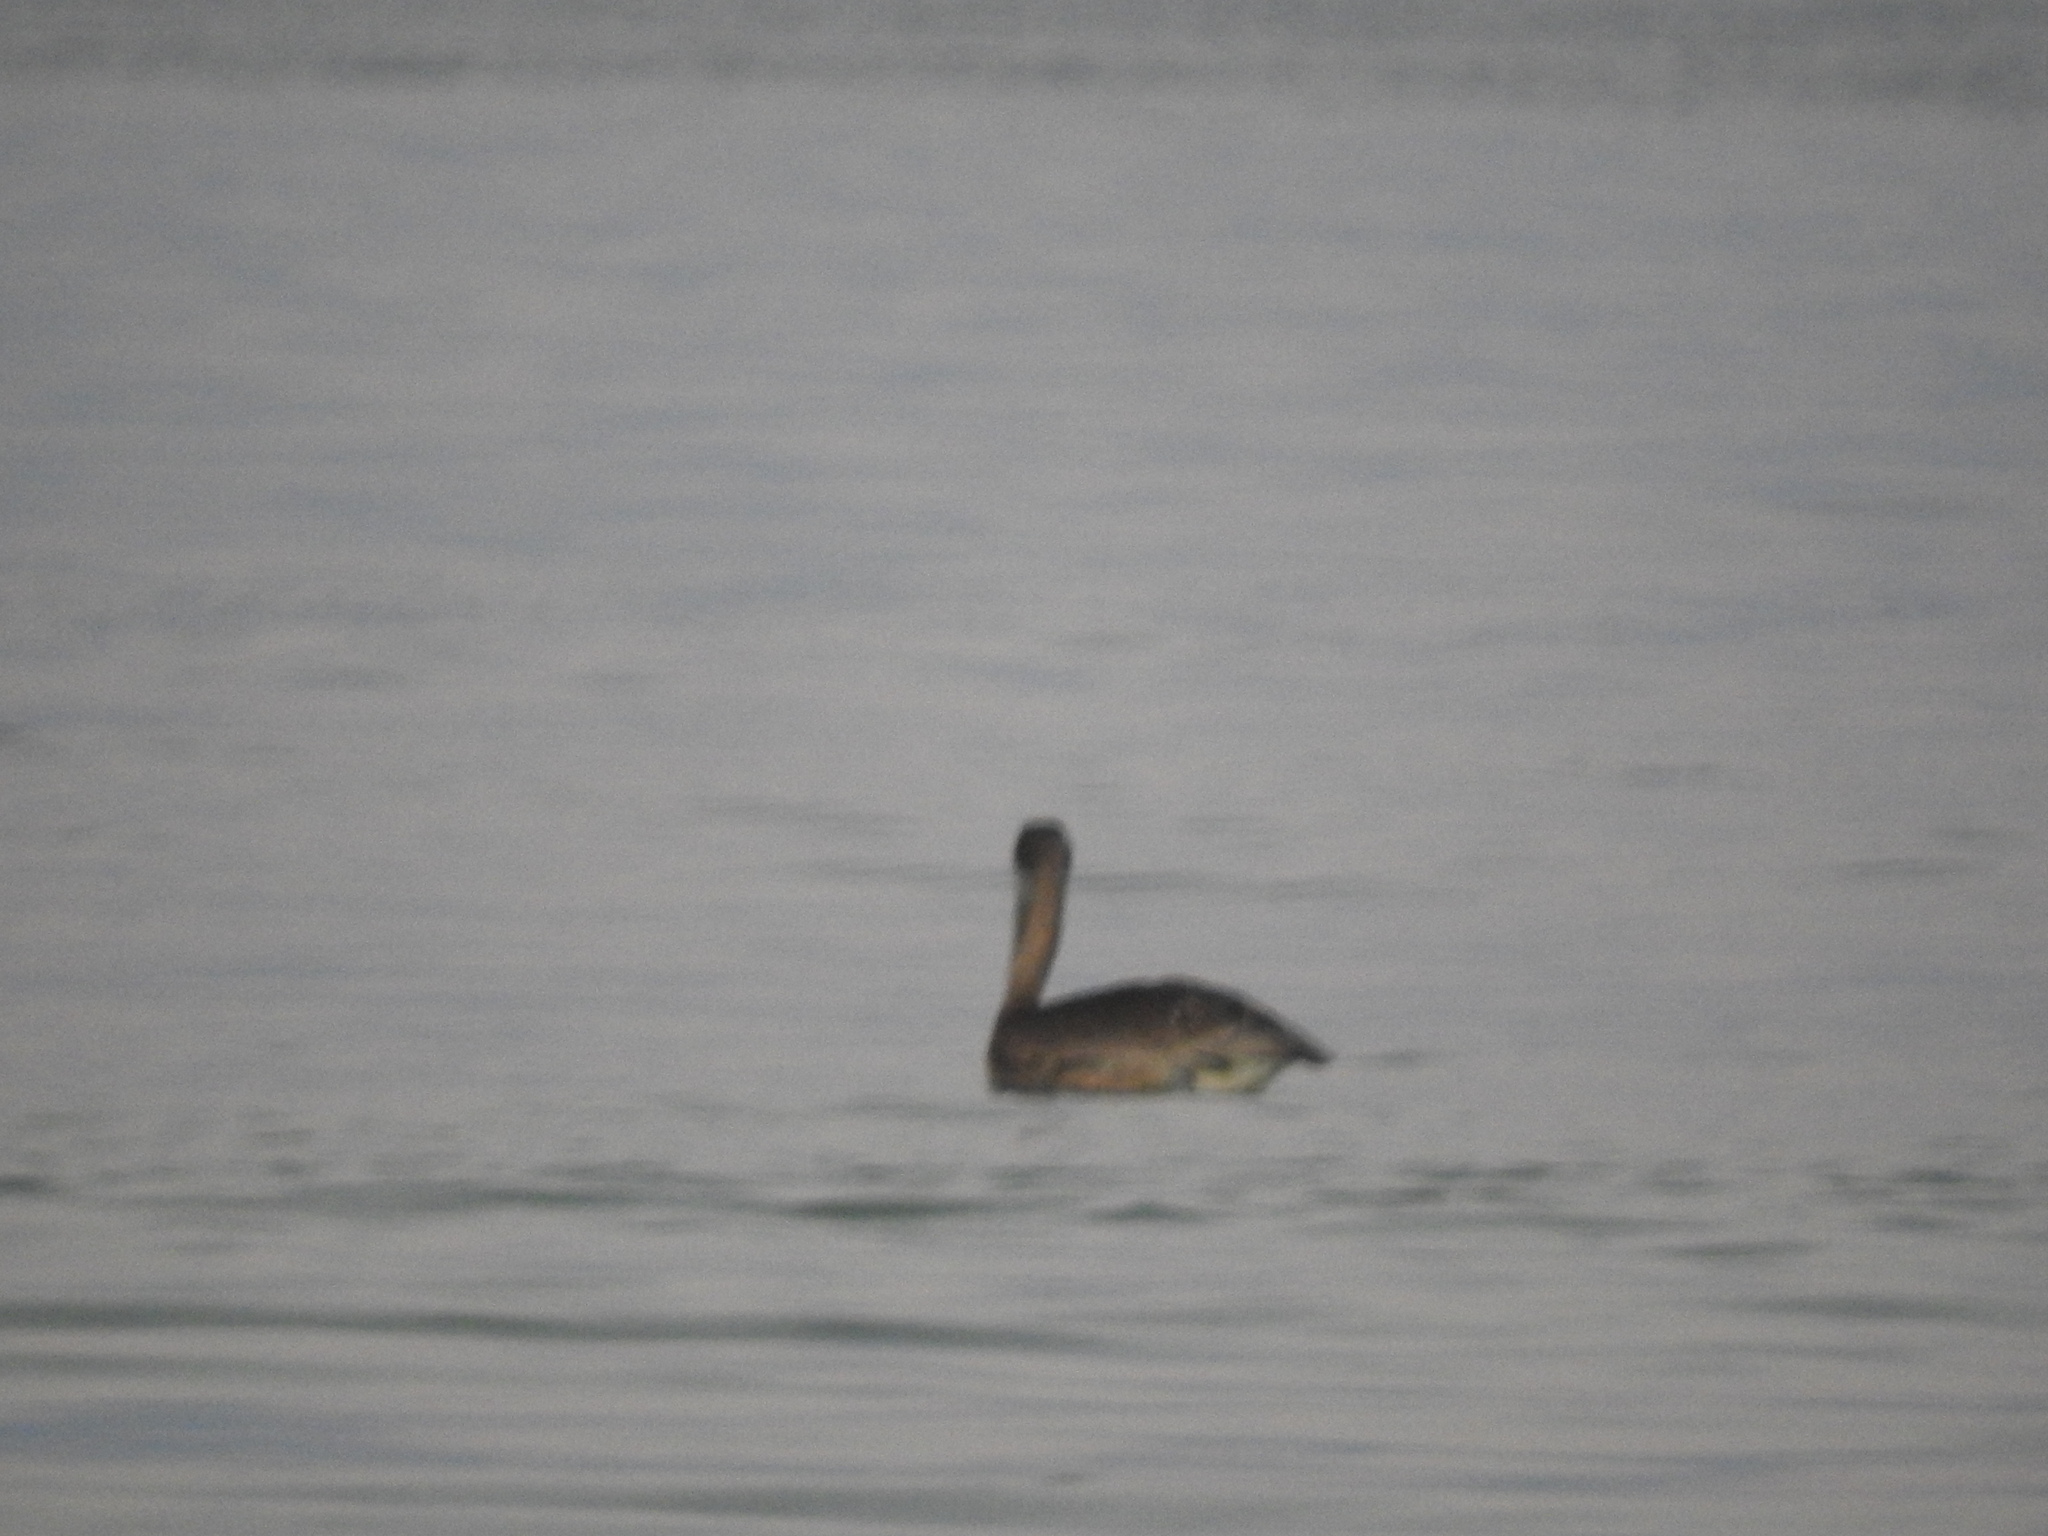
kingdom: Animalia
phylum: Chordata
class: Aves
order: Pelecaniformes
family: Pelecanidae
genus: Pelecanus
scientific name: Pelecanus occidentalis
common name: Brown pelican
